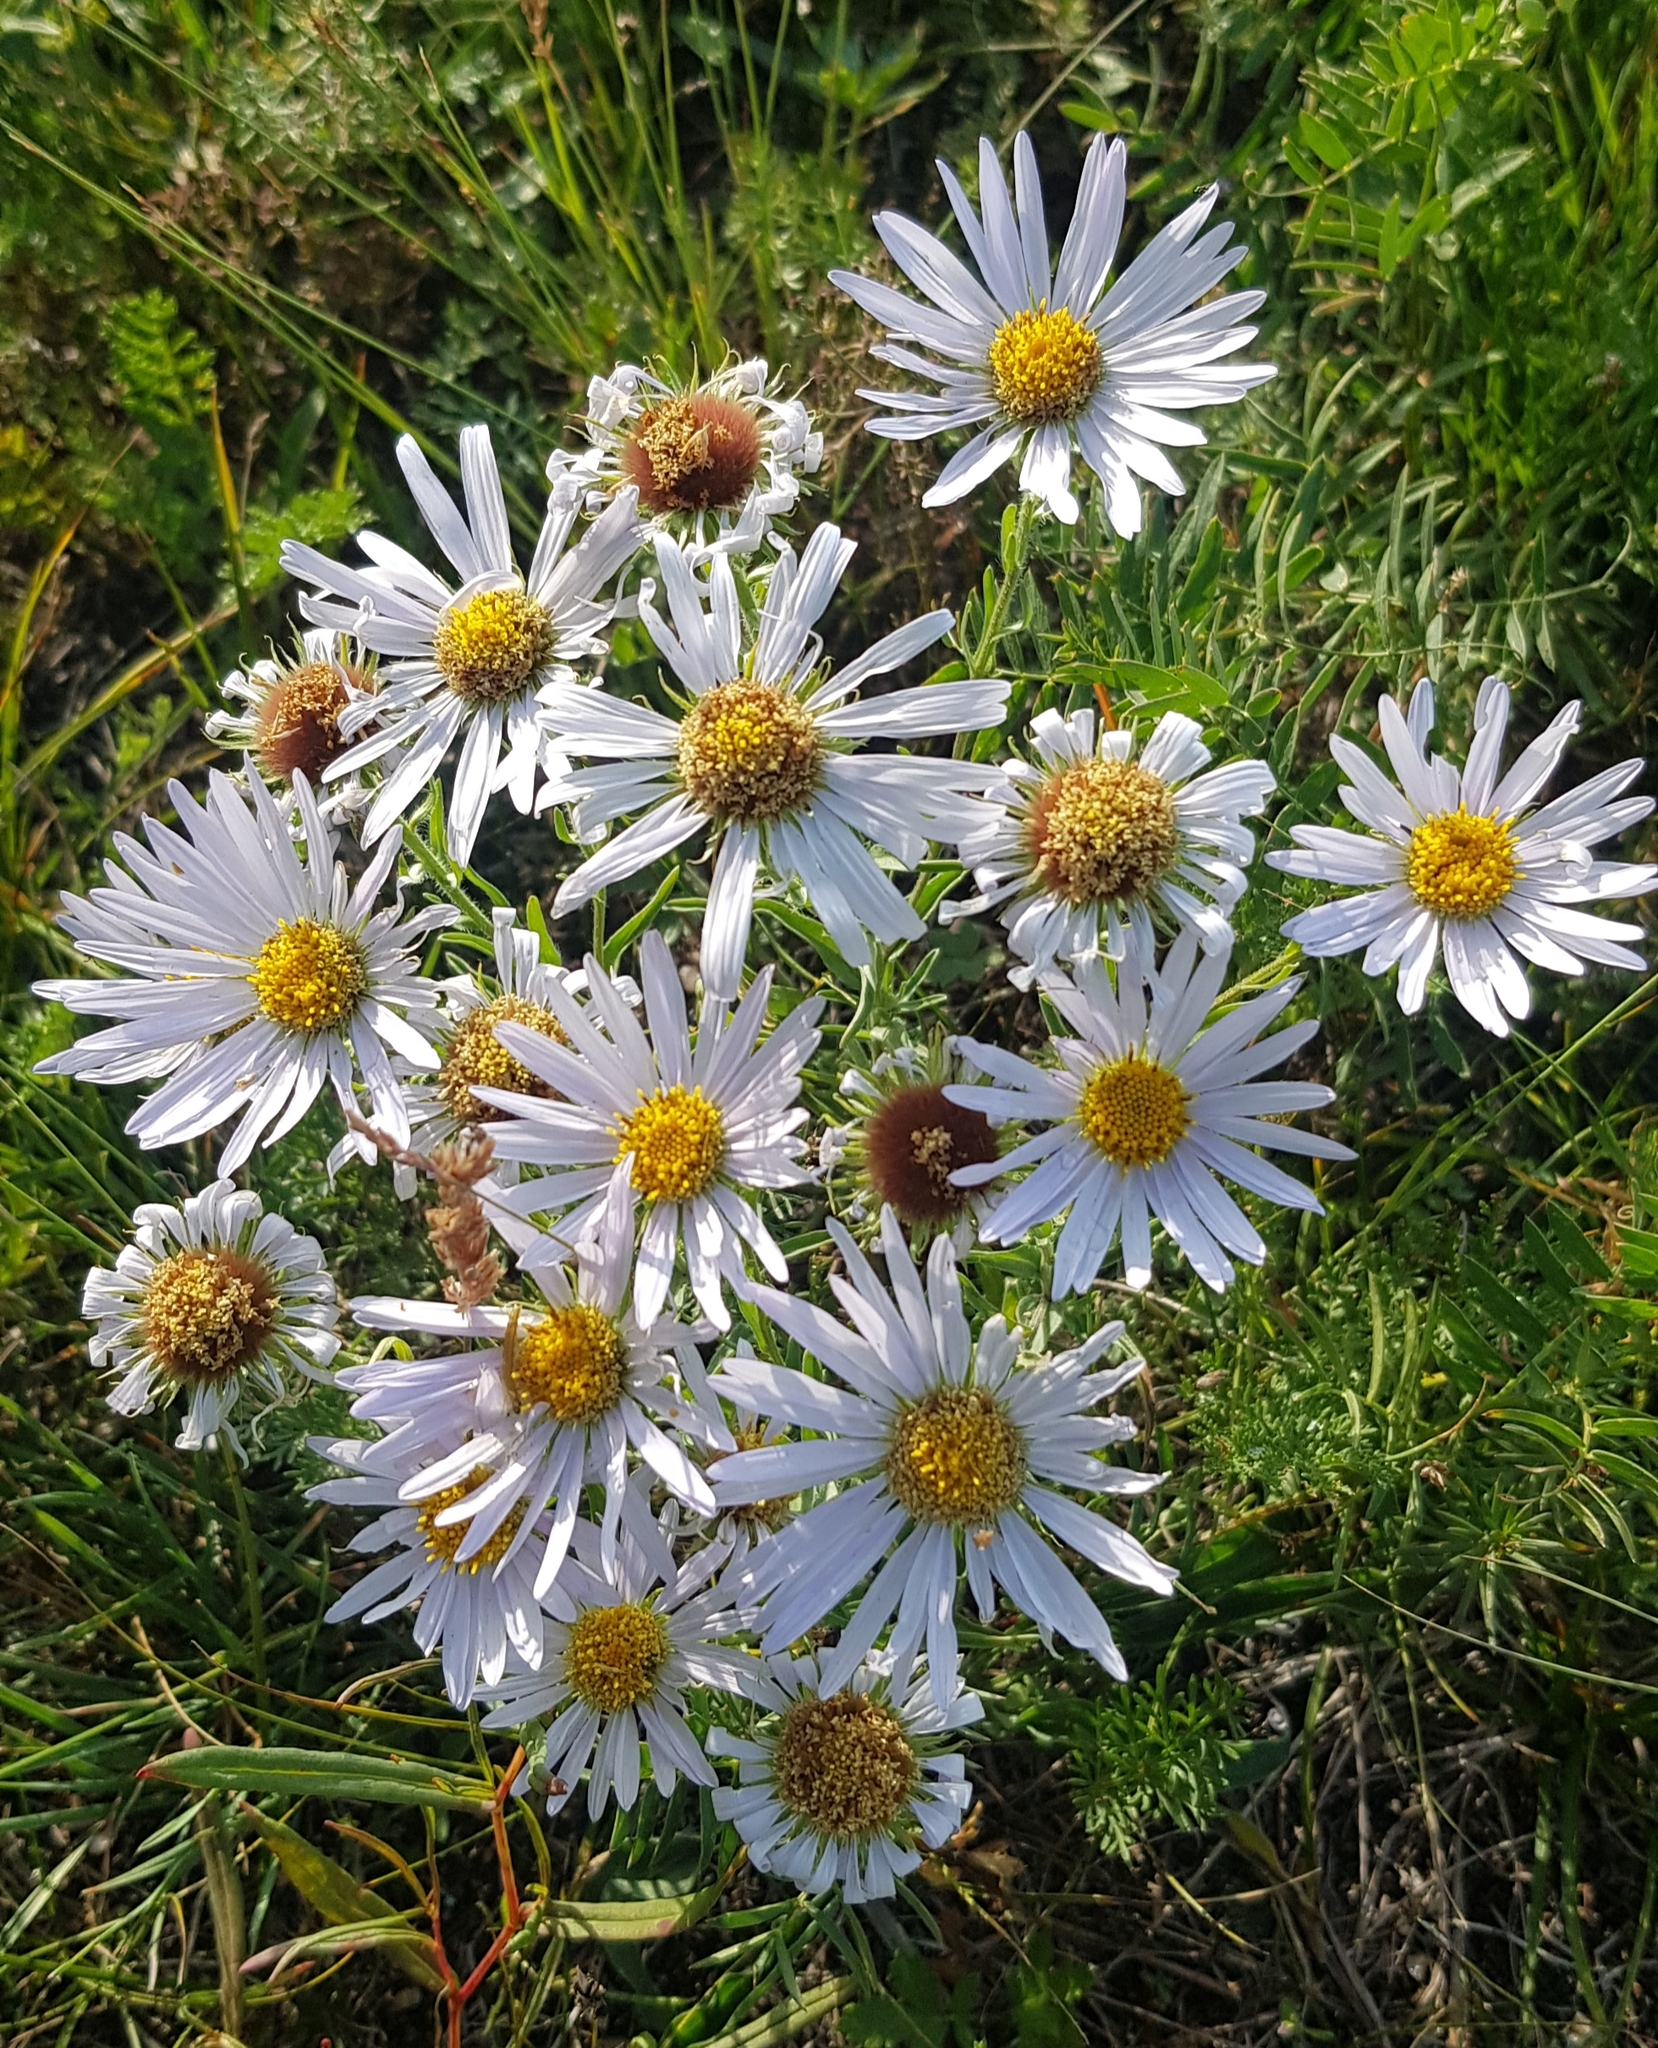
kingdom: Plantae
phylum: Tracheophyta
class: Magnoliopsida
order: Asterales
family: Asteraceae
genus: Heteropappus
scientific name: Heteropappus altaicus
